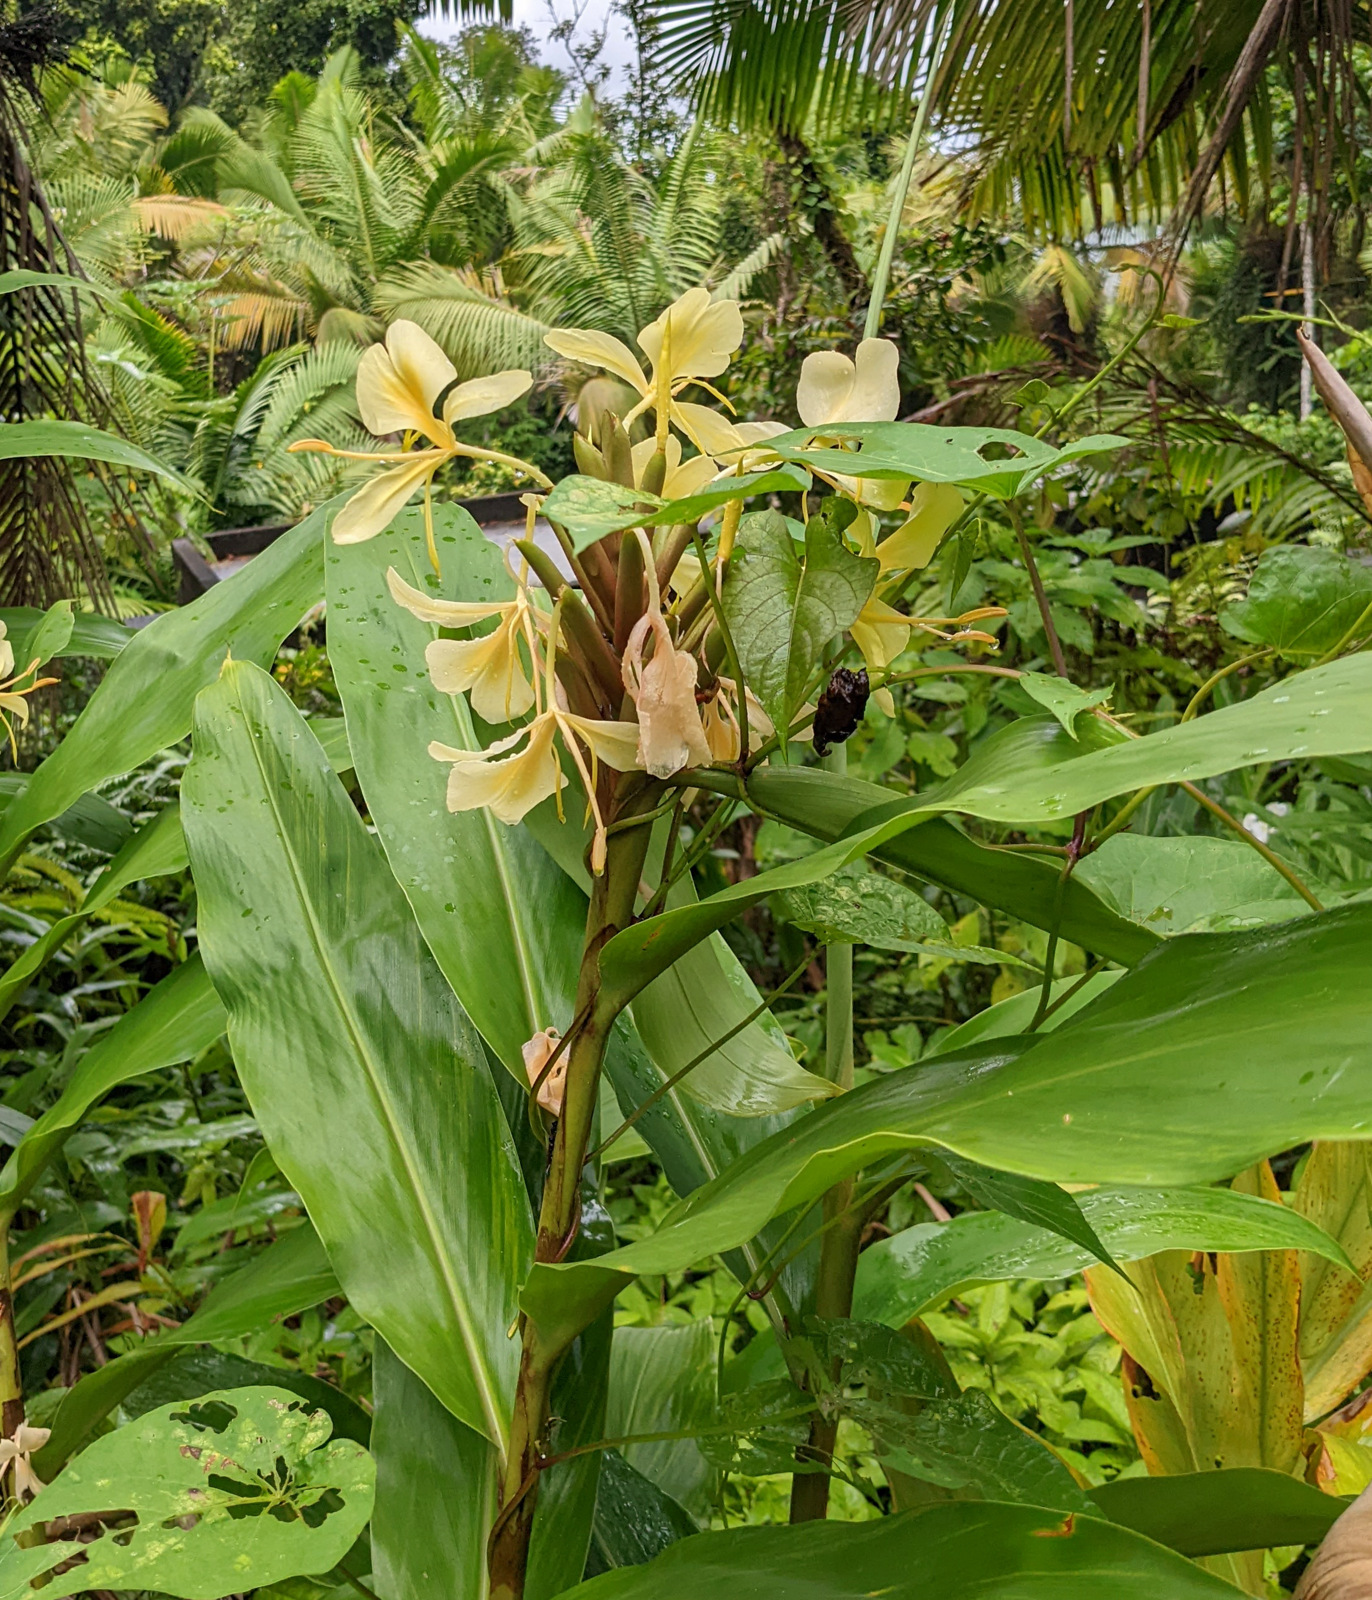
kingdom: Plantae
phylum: Tracheophyta
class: Liliopsida
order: Zingiberales
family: Zingiberaceae
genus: Hedychium
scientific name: Hedychium flavescens
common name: Yellow ginger
